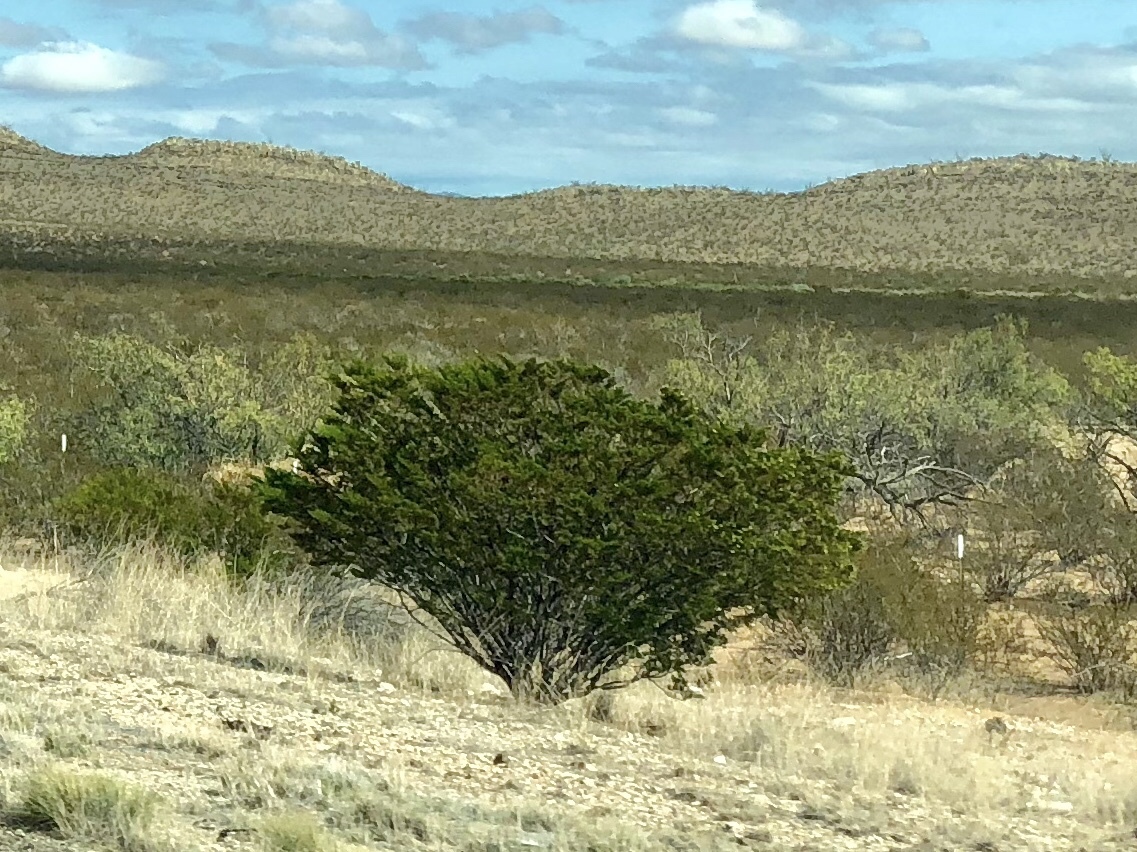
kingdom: Plantae
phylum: Tracheophyta
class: Magnoliopsida
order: Zygophyllales
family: Zygophyllaceae
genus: Larrea
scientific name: Larrea tridentata
